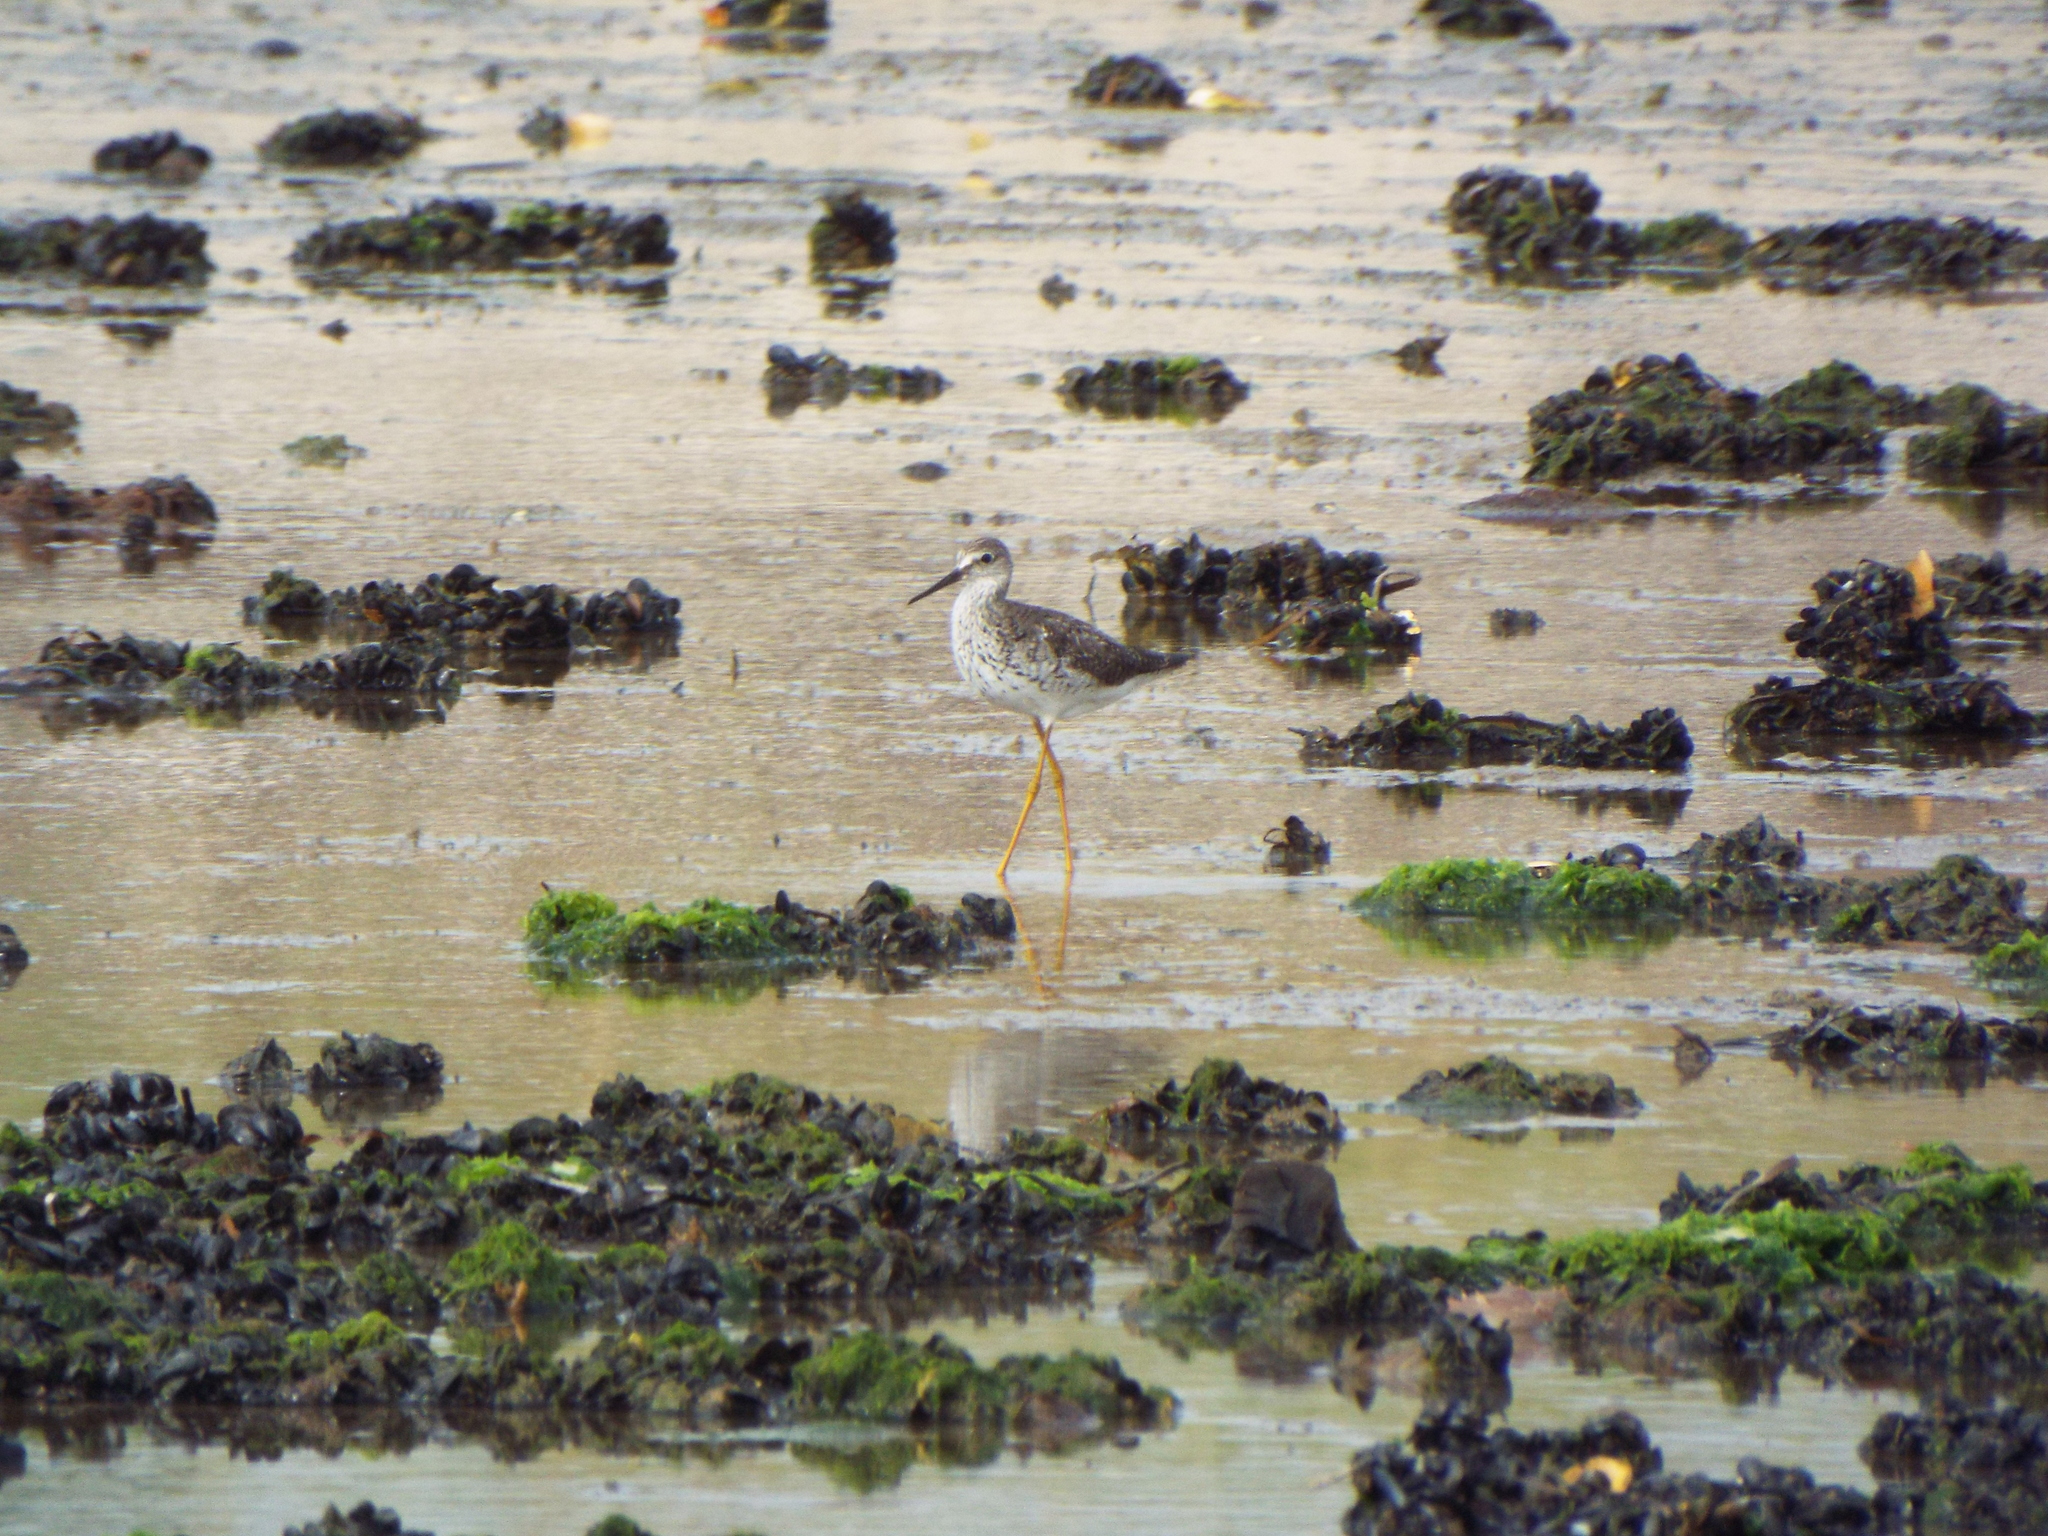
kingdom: Animalia
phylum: Chordata
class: Aves
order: Charadriiformes
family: Scolopacidae
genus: Tringa
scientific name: Tringa flavipes
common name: Lesser yellowlegs
